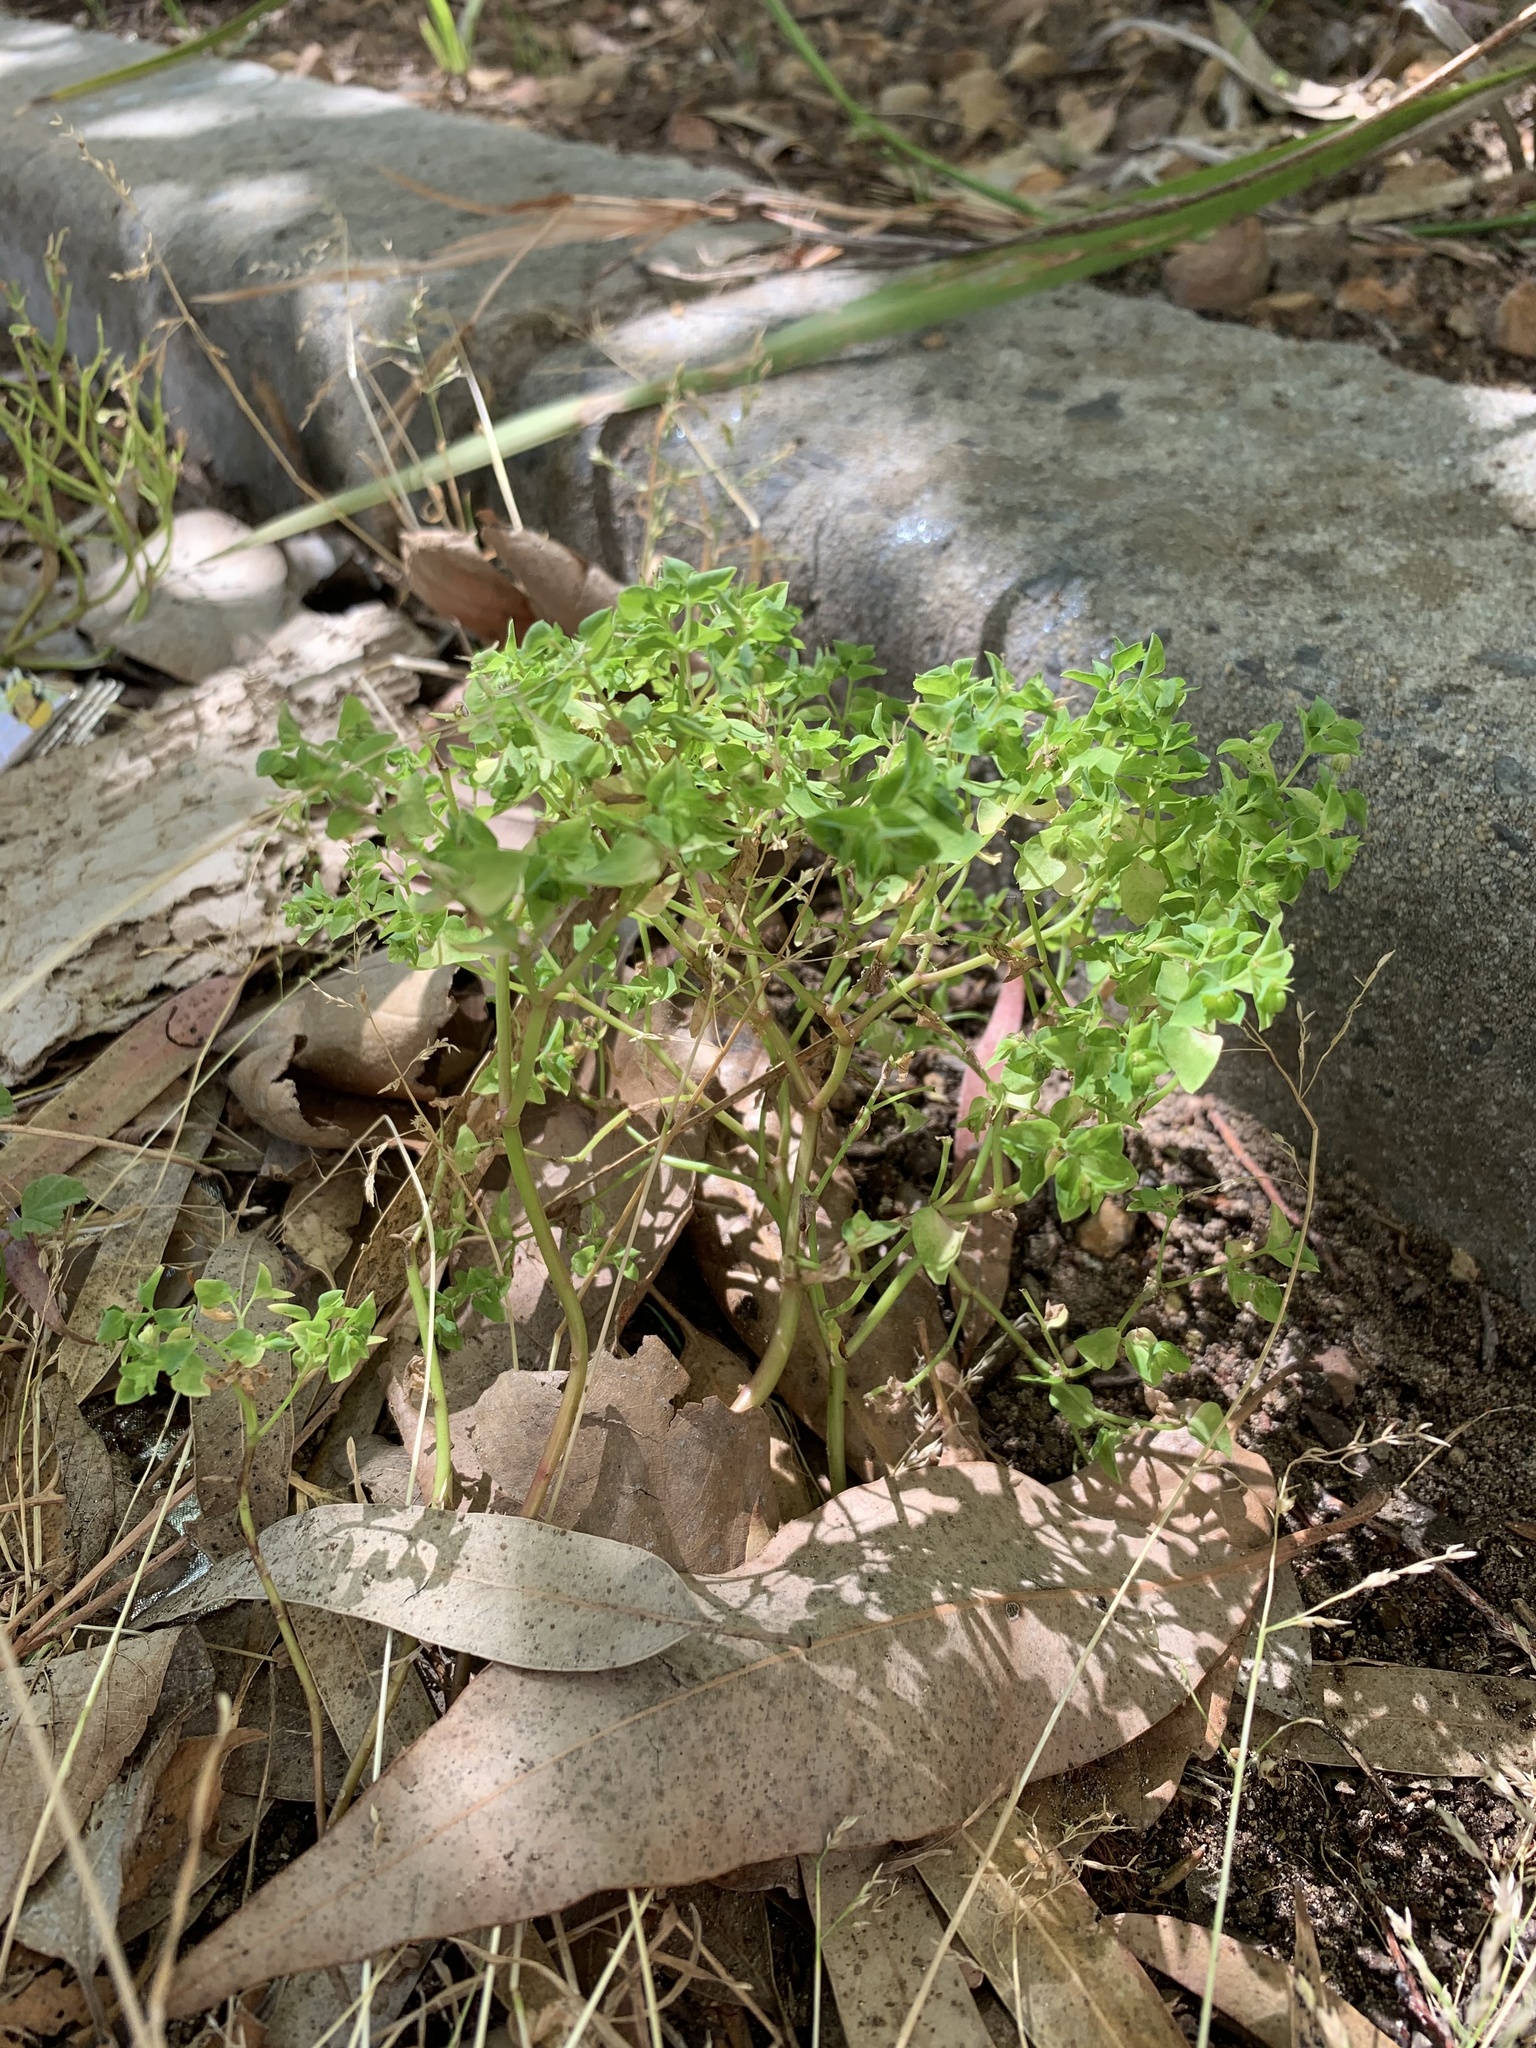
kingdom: Plantae
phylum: Tracheophyta
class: Magnoliopsida
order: Malpighiales
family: Euphorbiaceae
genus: Euphorbia
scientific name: Euphorbia peplus
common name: Petty spurge
